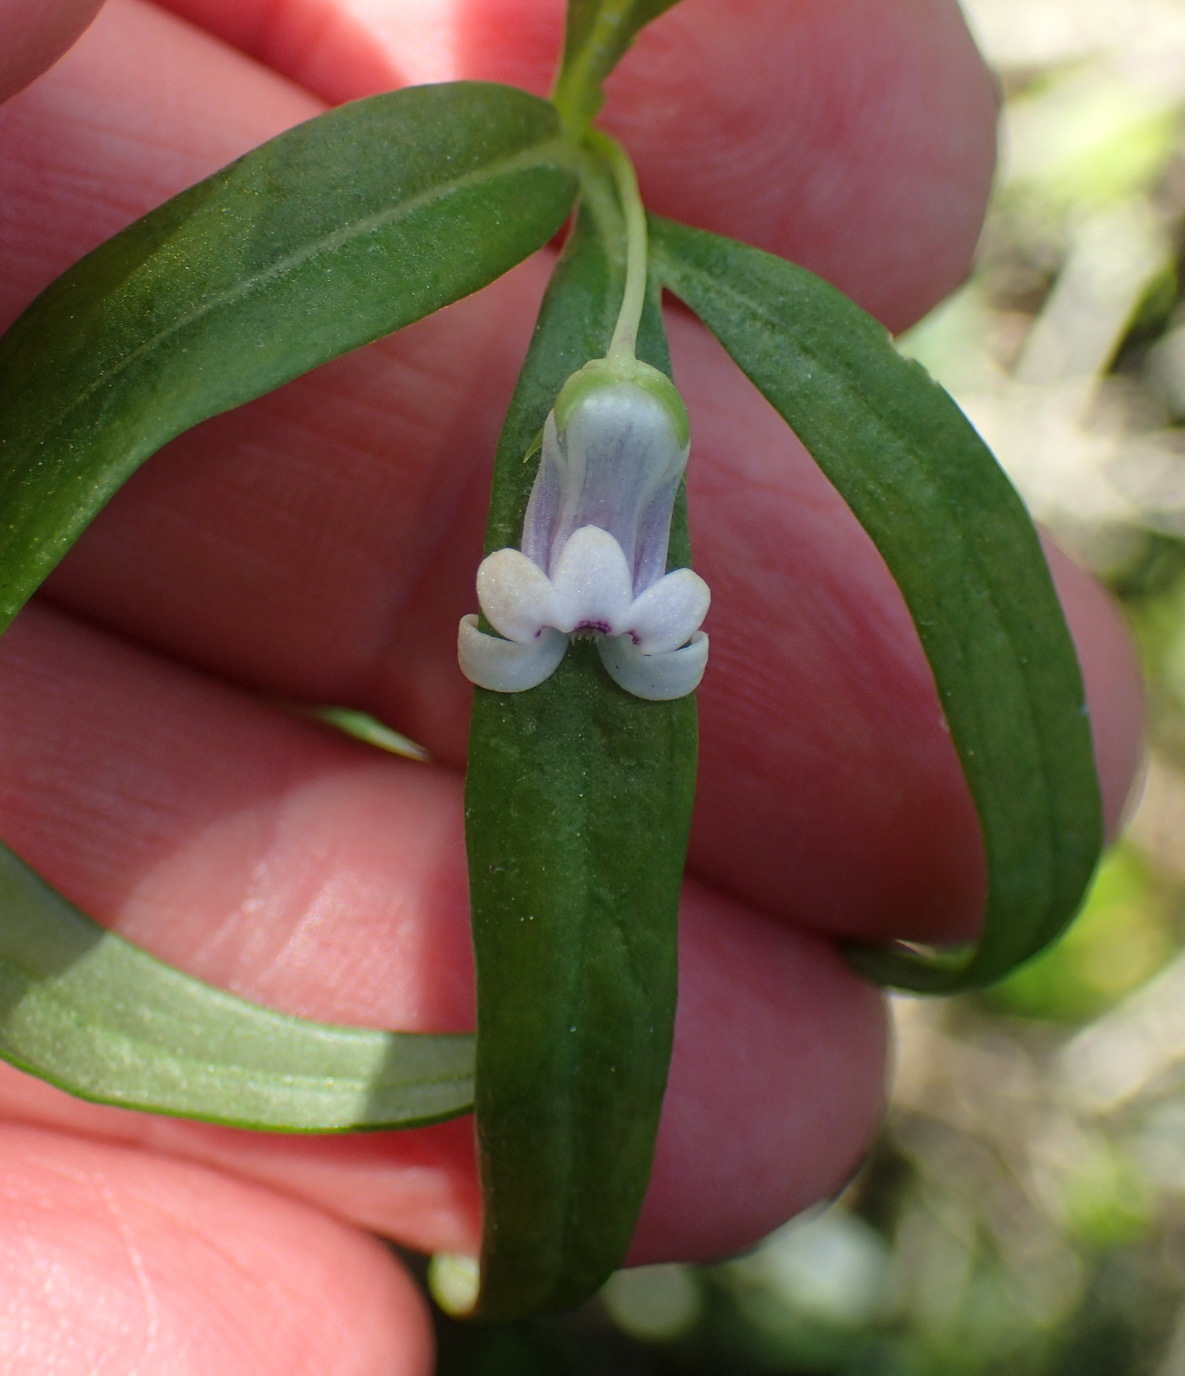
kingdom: Plantae
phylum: Tracheophyta
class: Magnoliopsida
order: Asterales
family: Campanulaceae
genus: Cyphia
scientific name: Cyphia digitata
